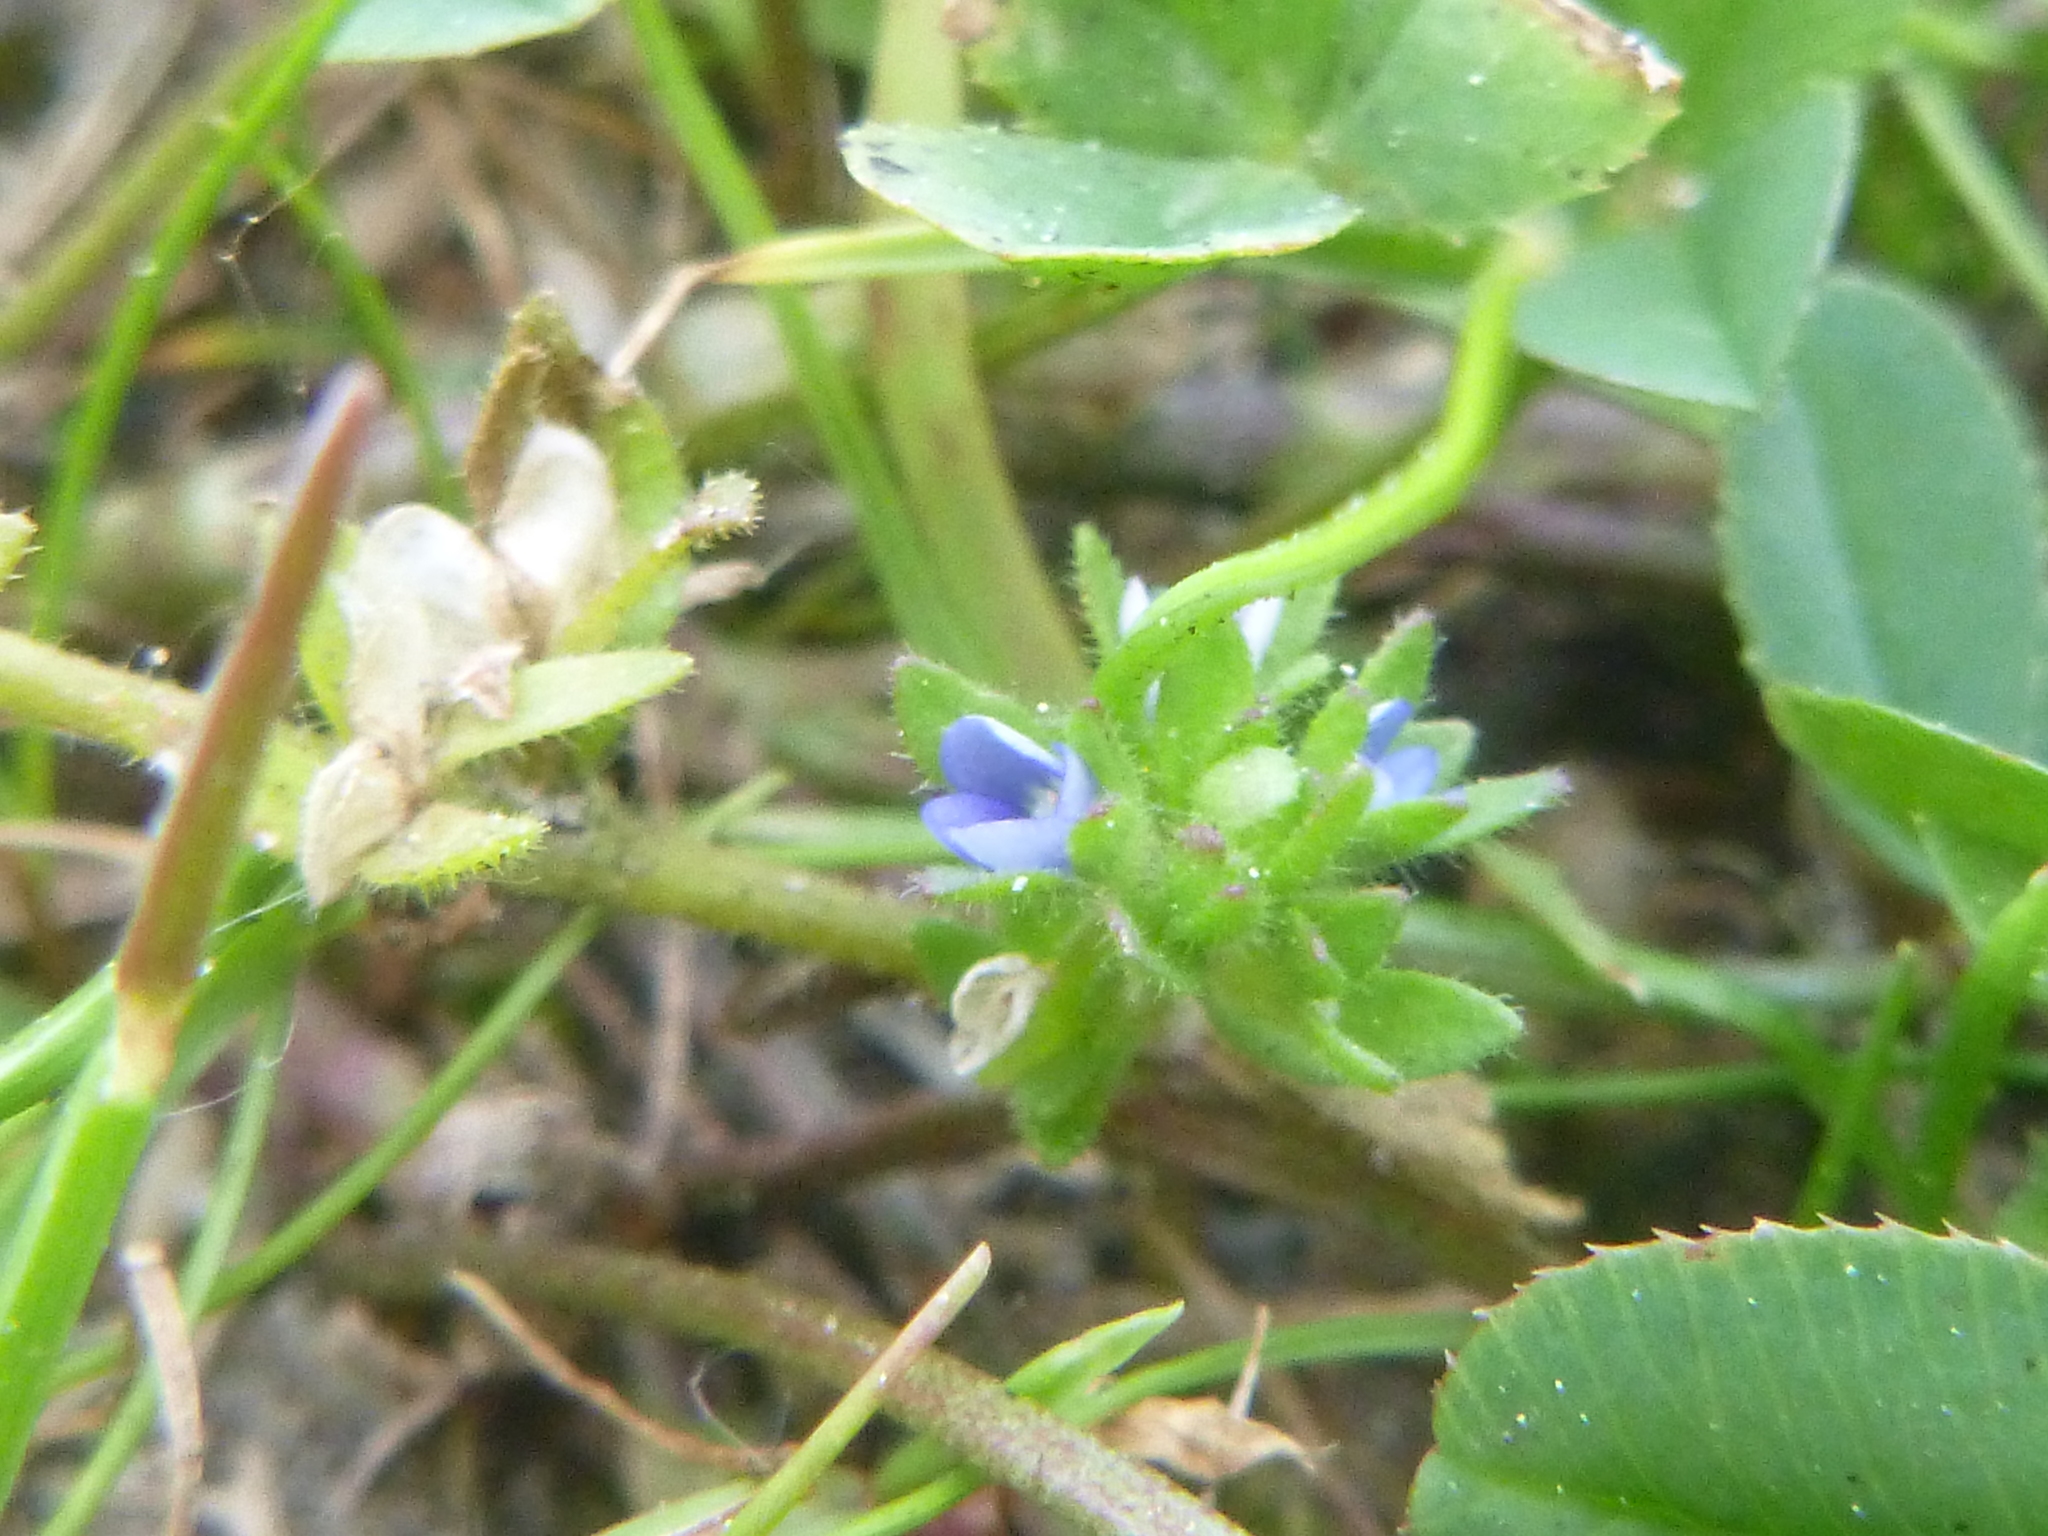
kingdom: Plantae
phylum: Tracheophyta
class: Magnoliopsida
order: Lamiales
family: Plantaginaceae
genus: Veronica
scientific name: Veronica arvensis
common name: Corn speedwell
